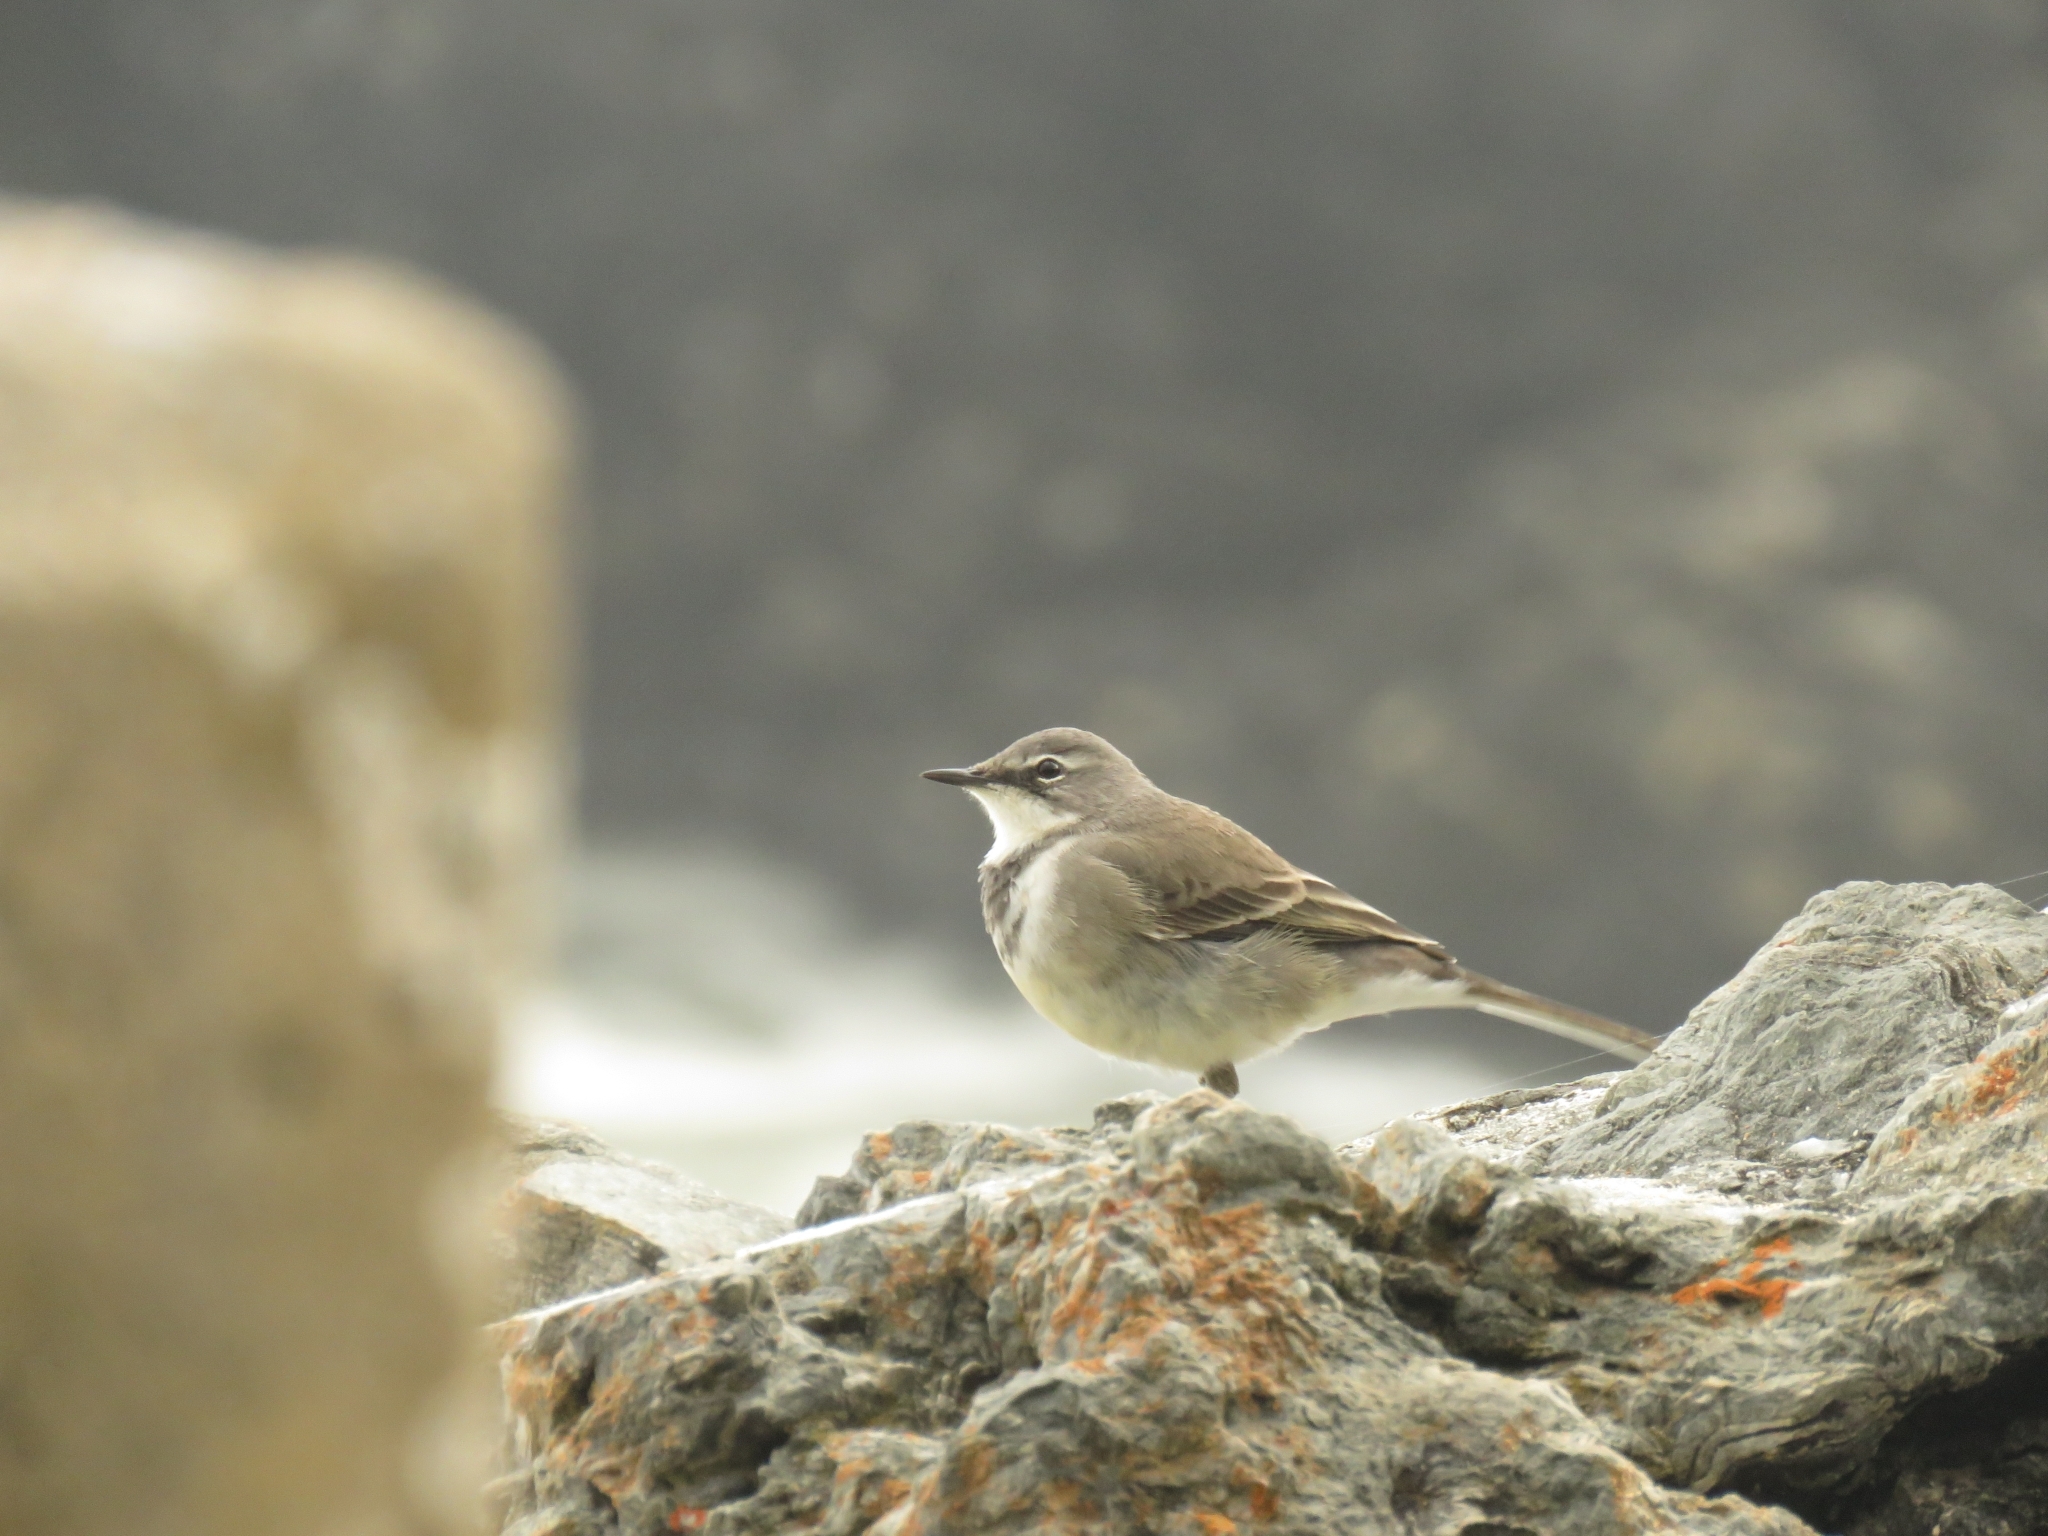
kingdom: Animalia
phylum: Chordata
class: Aves
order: Passeriformes
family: Motacillidae
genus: Motacilla
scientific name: Motacilla capensis
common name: Cape wagtail
